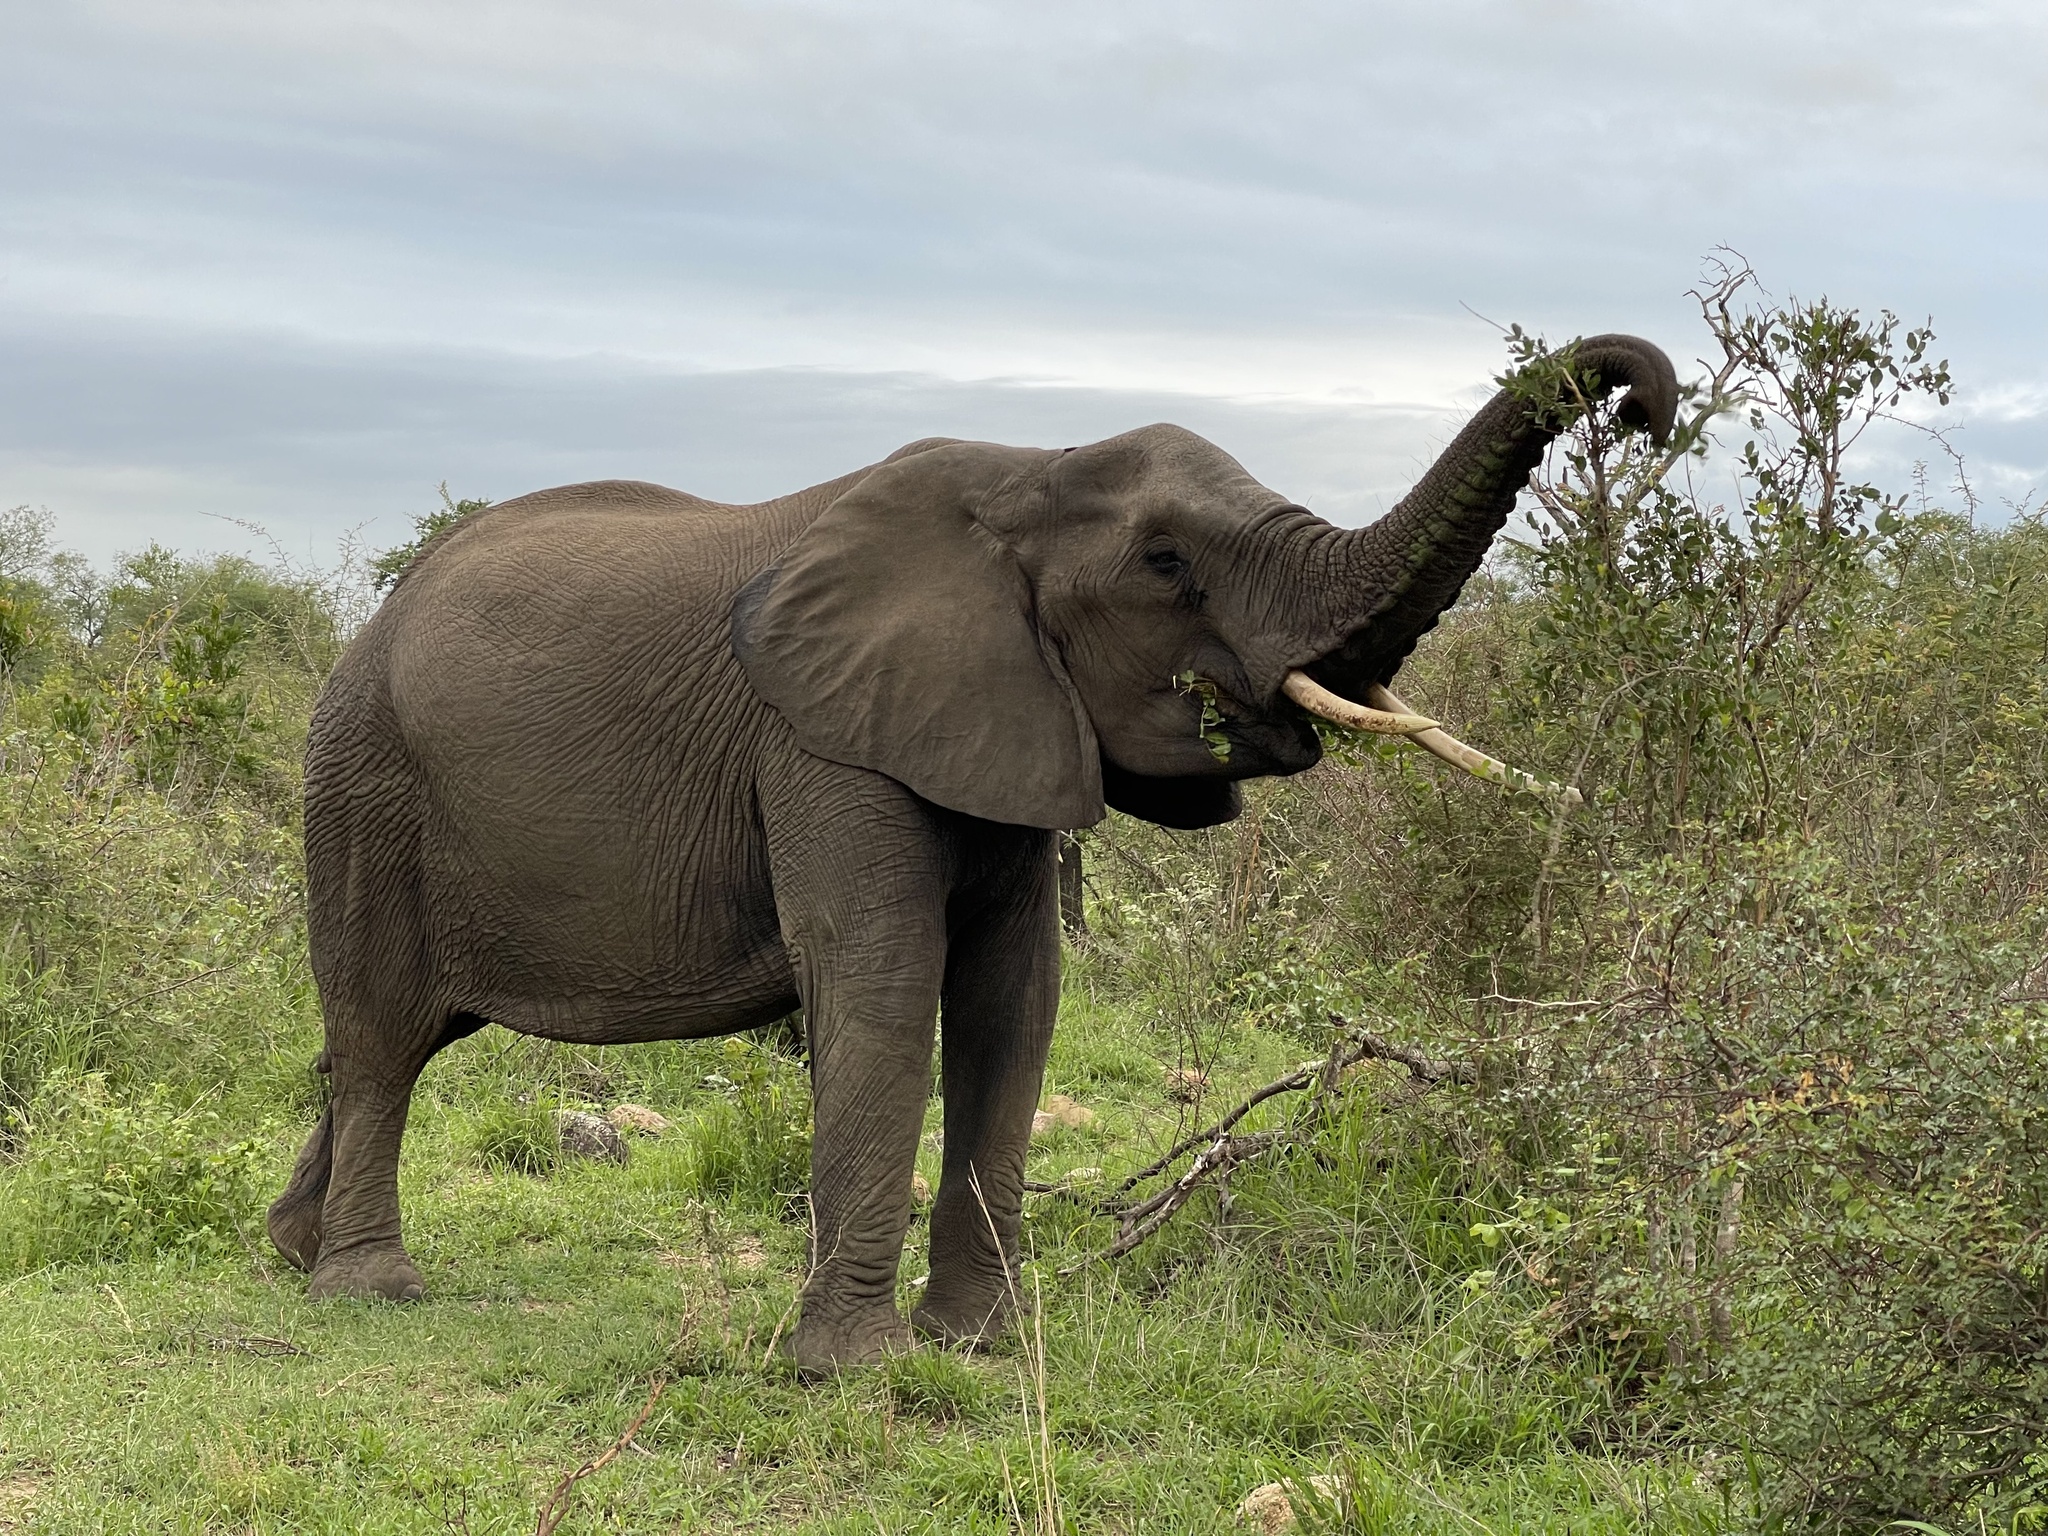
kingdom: Animalia
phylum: Chordata
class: Mammalia
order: Proboscidea
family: Elephantidae
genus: Loxodonta
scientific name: Loxodonta africana
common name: African elephant
